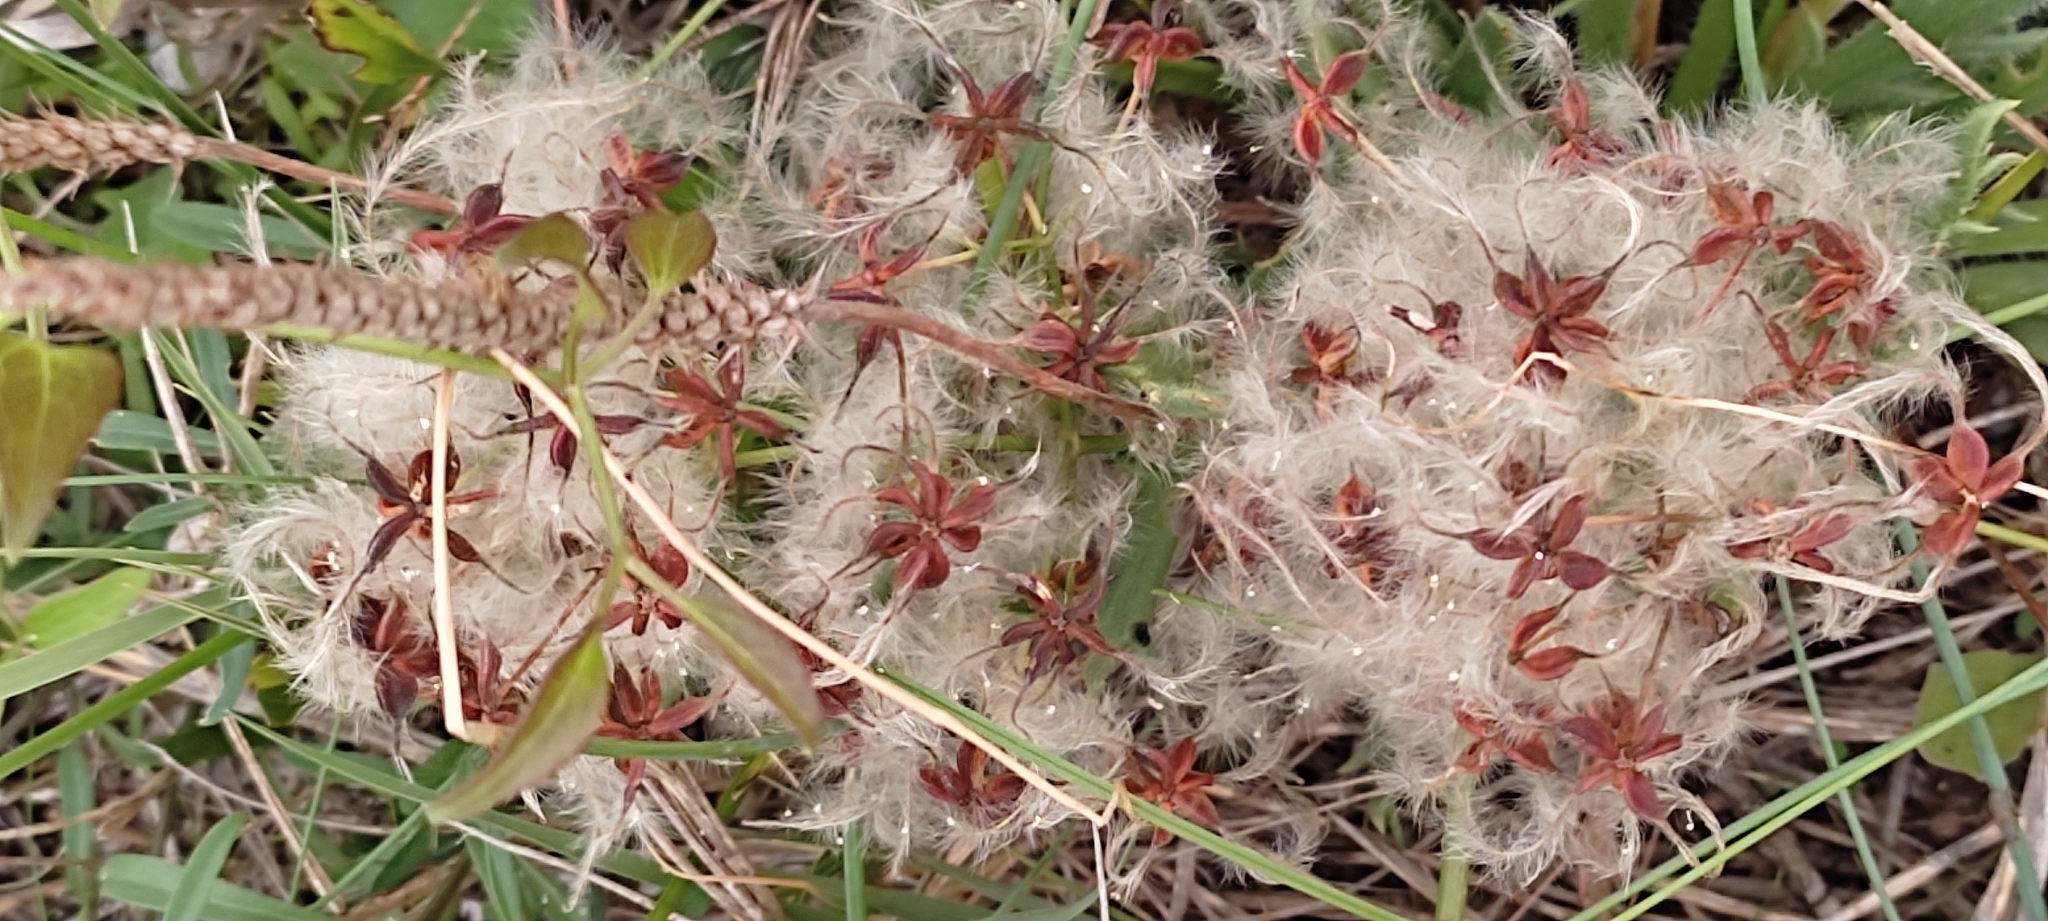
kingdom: Plantae
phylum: Tracheophyta
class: Magnoliopsida
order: Ranunculales
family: Ranunculaceae
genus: Clematis
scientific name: Clematis flammula
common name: Virgin's-bower
